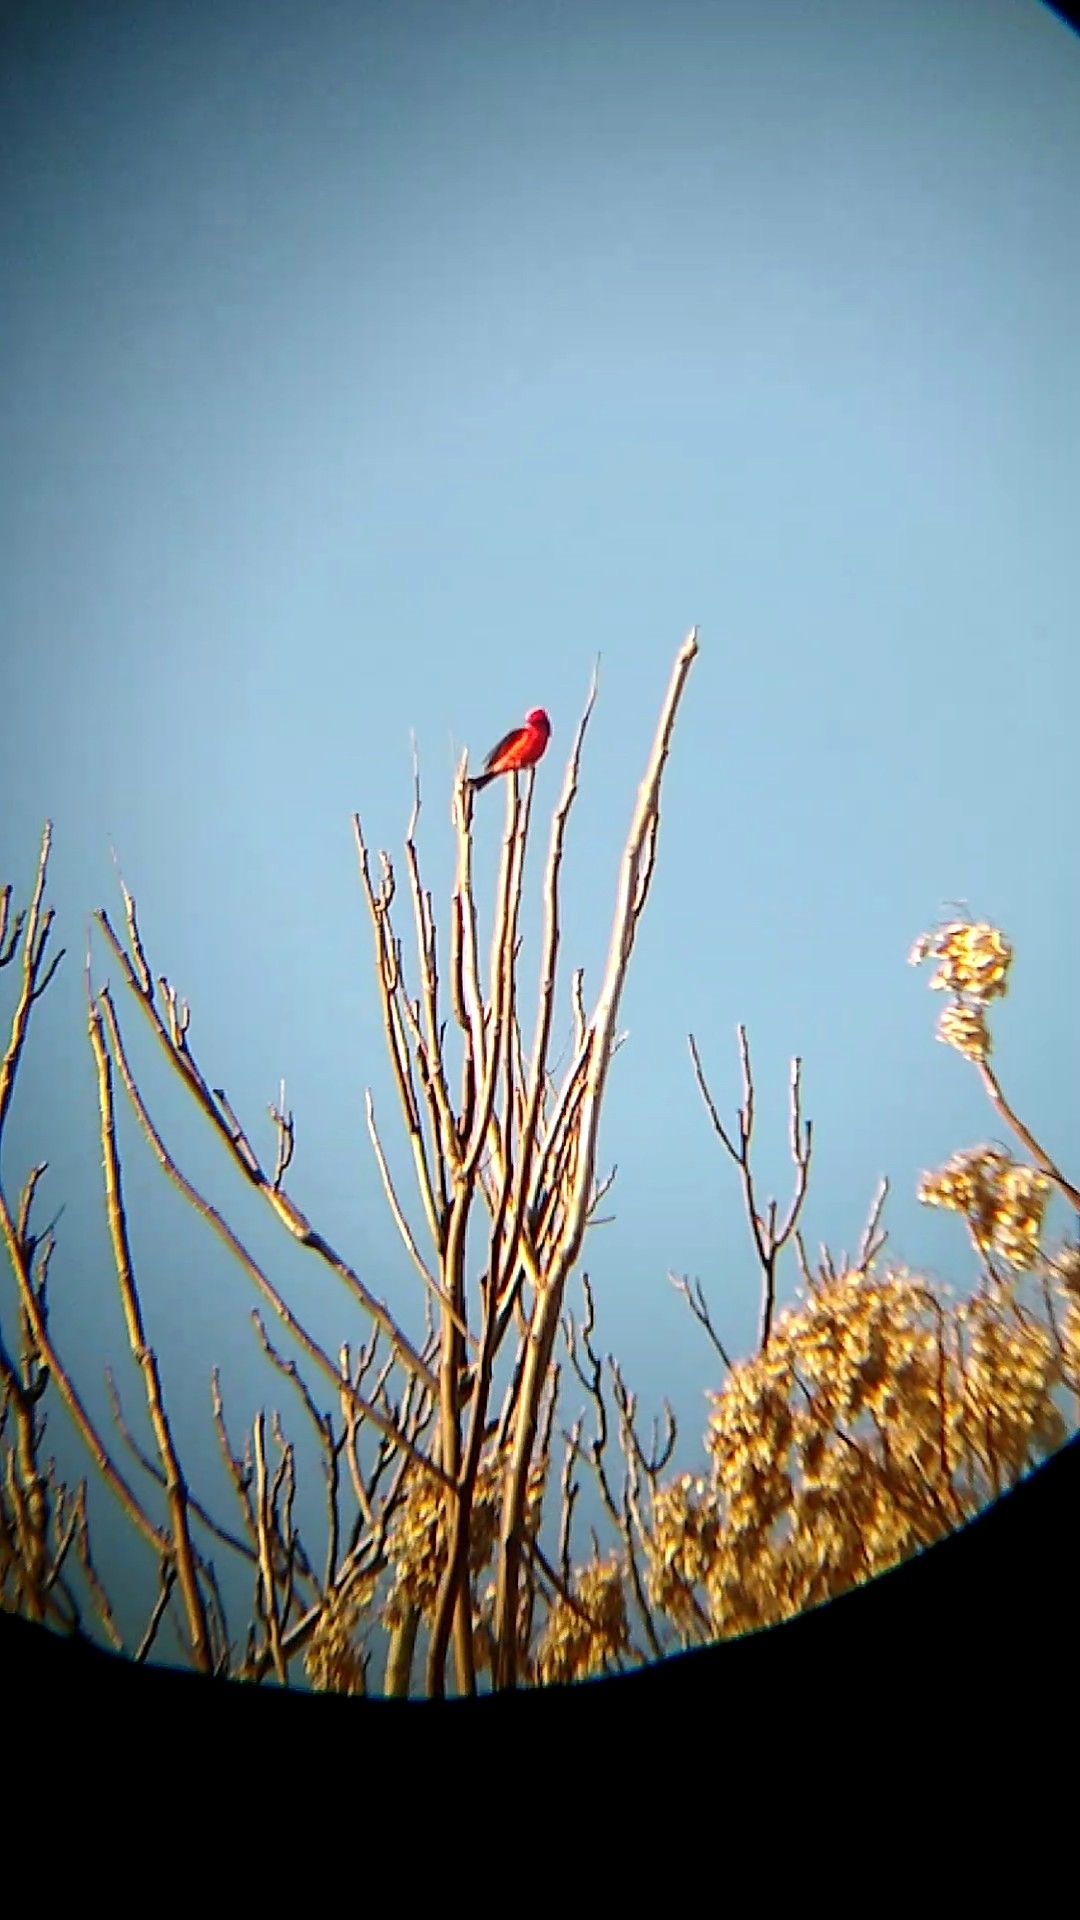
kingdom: Animalia
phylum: Chordata
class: Aves
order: Passeriformes
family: Tyrannidae
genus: Pyrocephalus
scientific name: Pyrocephalus rubinus
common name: Vermilion flycatcher
